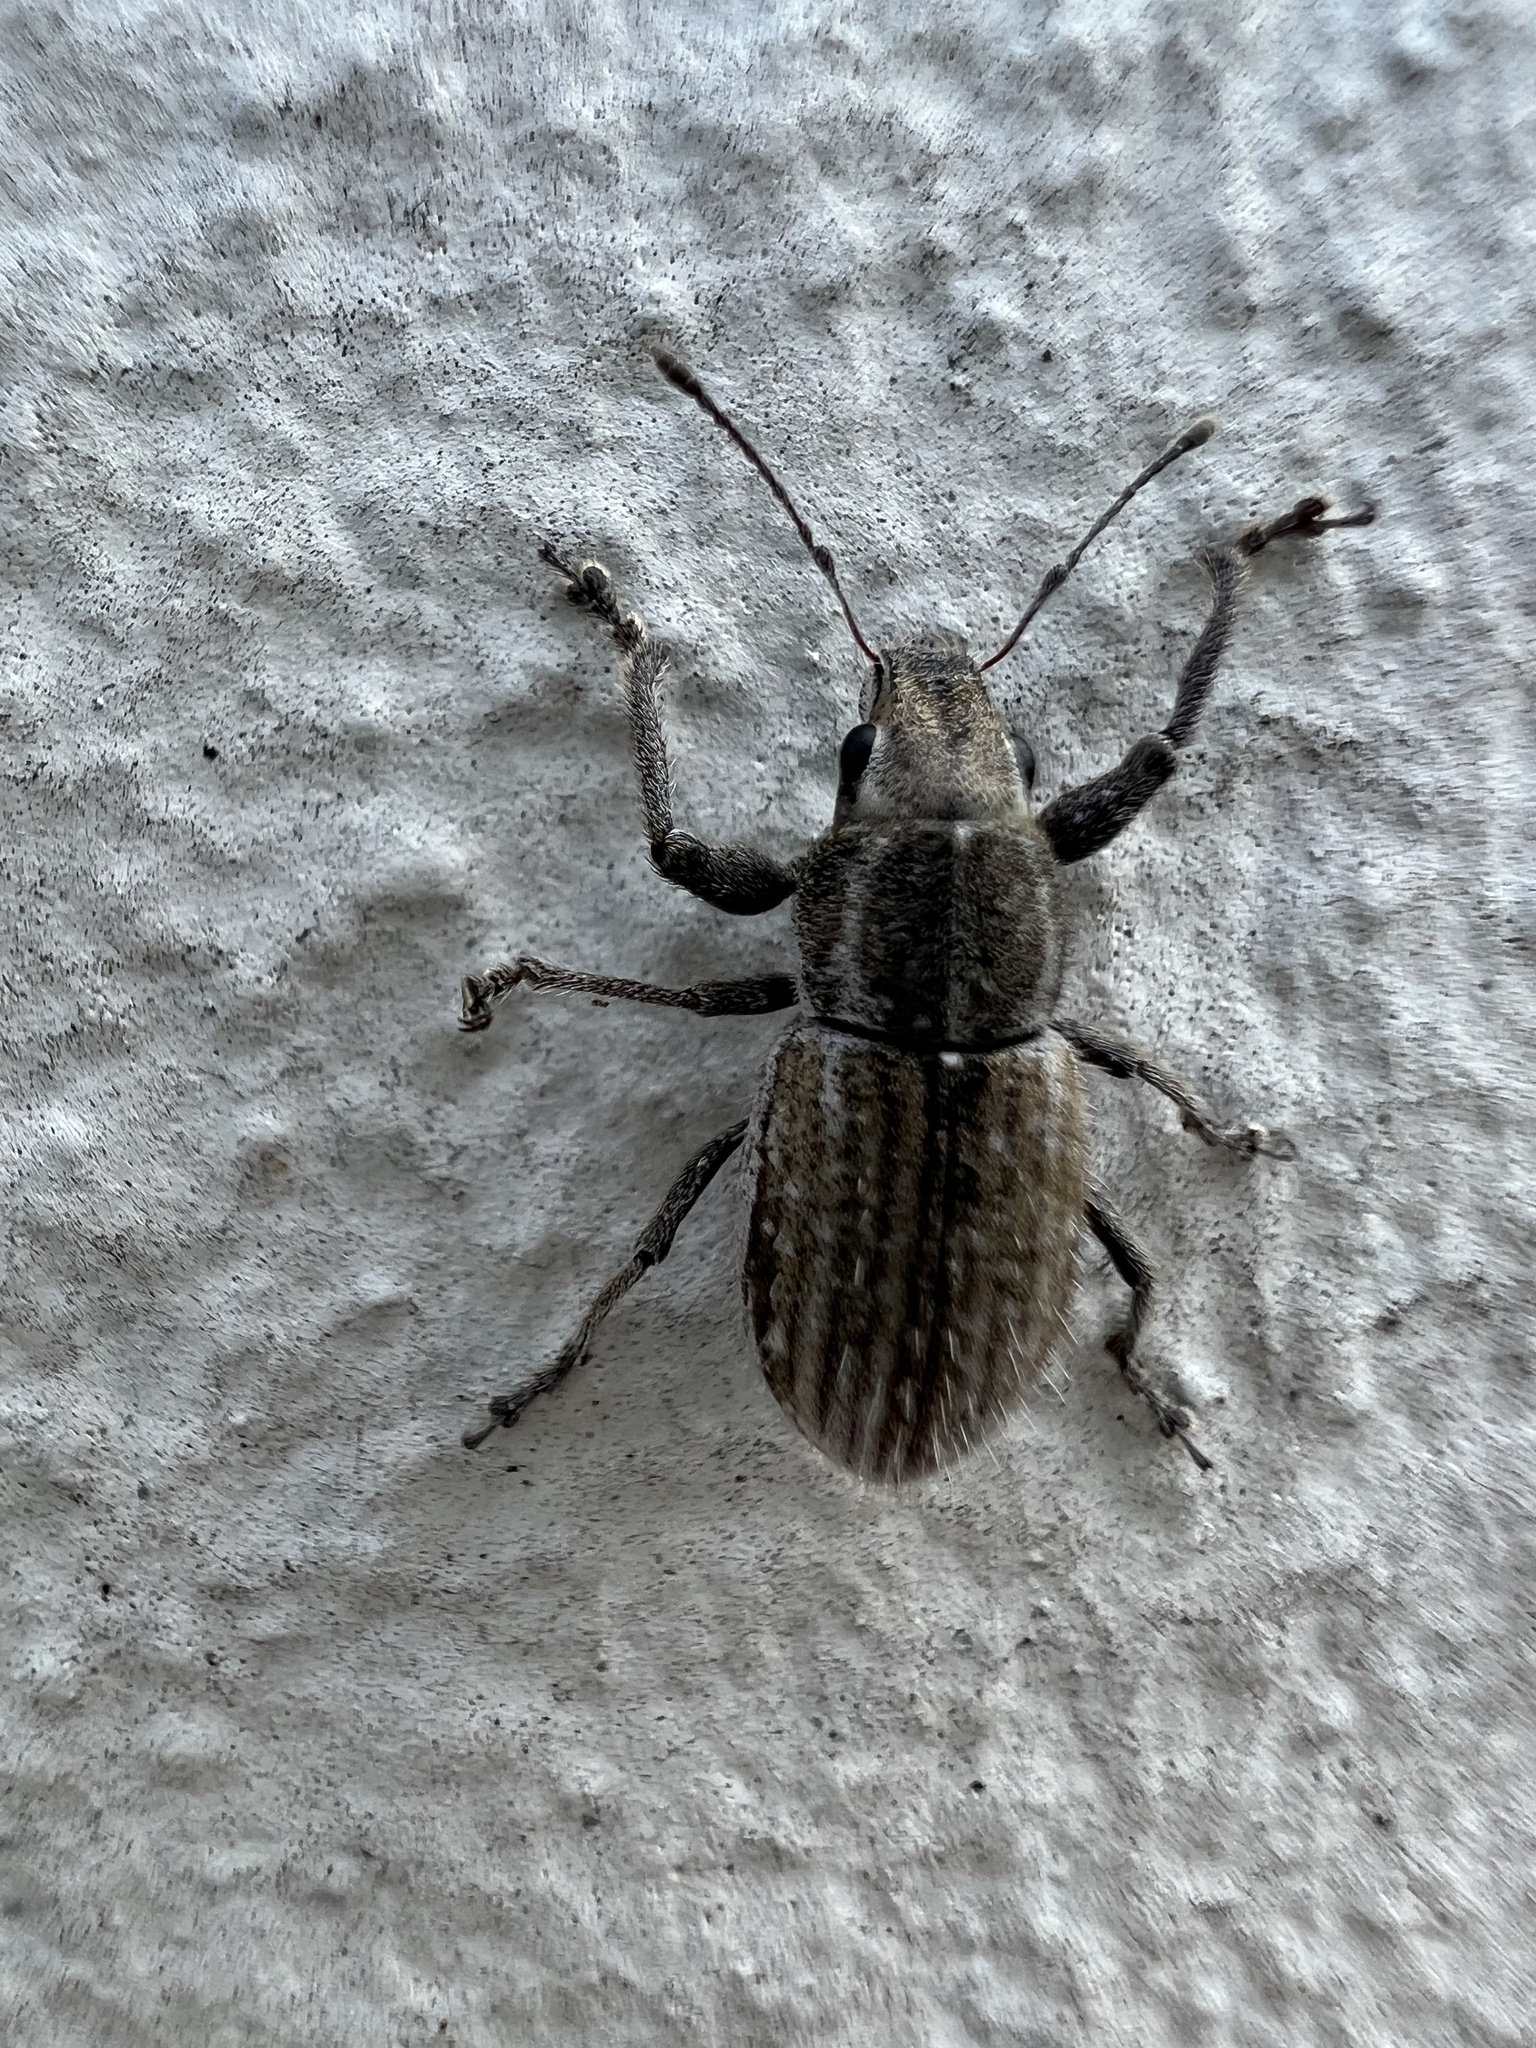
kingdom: Animalia
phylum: Arthropoda
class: Insecta
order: Coleoptera
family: Curculionidae
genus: Naupactus
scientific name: Naupactus leucoloma
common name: Whitefringed beetle
